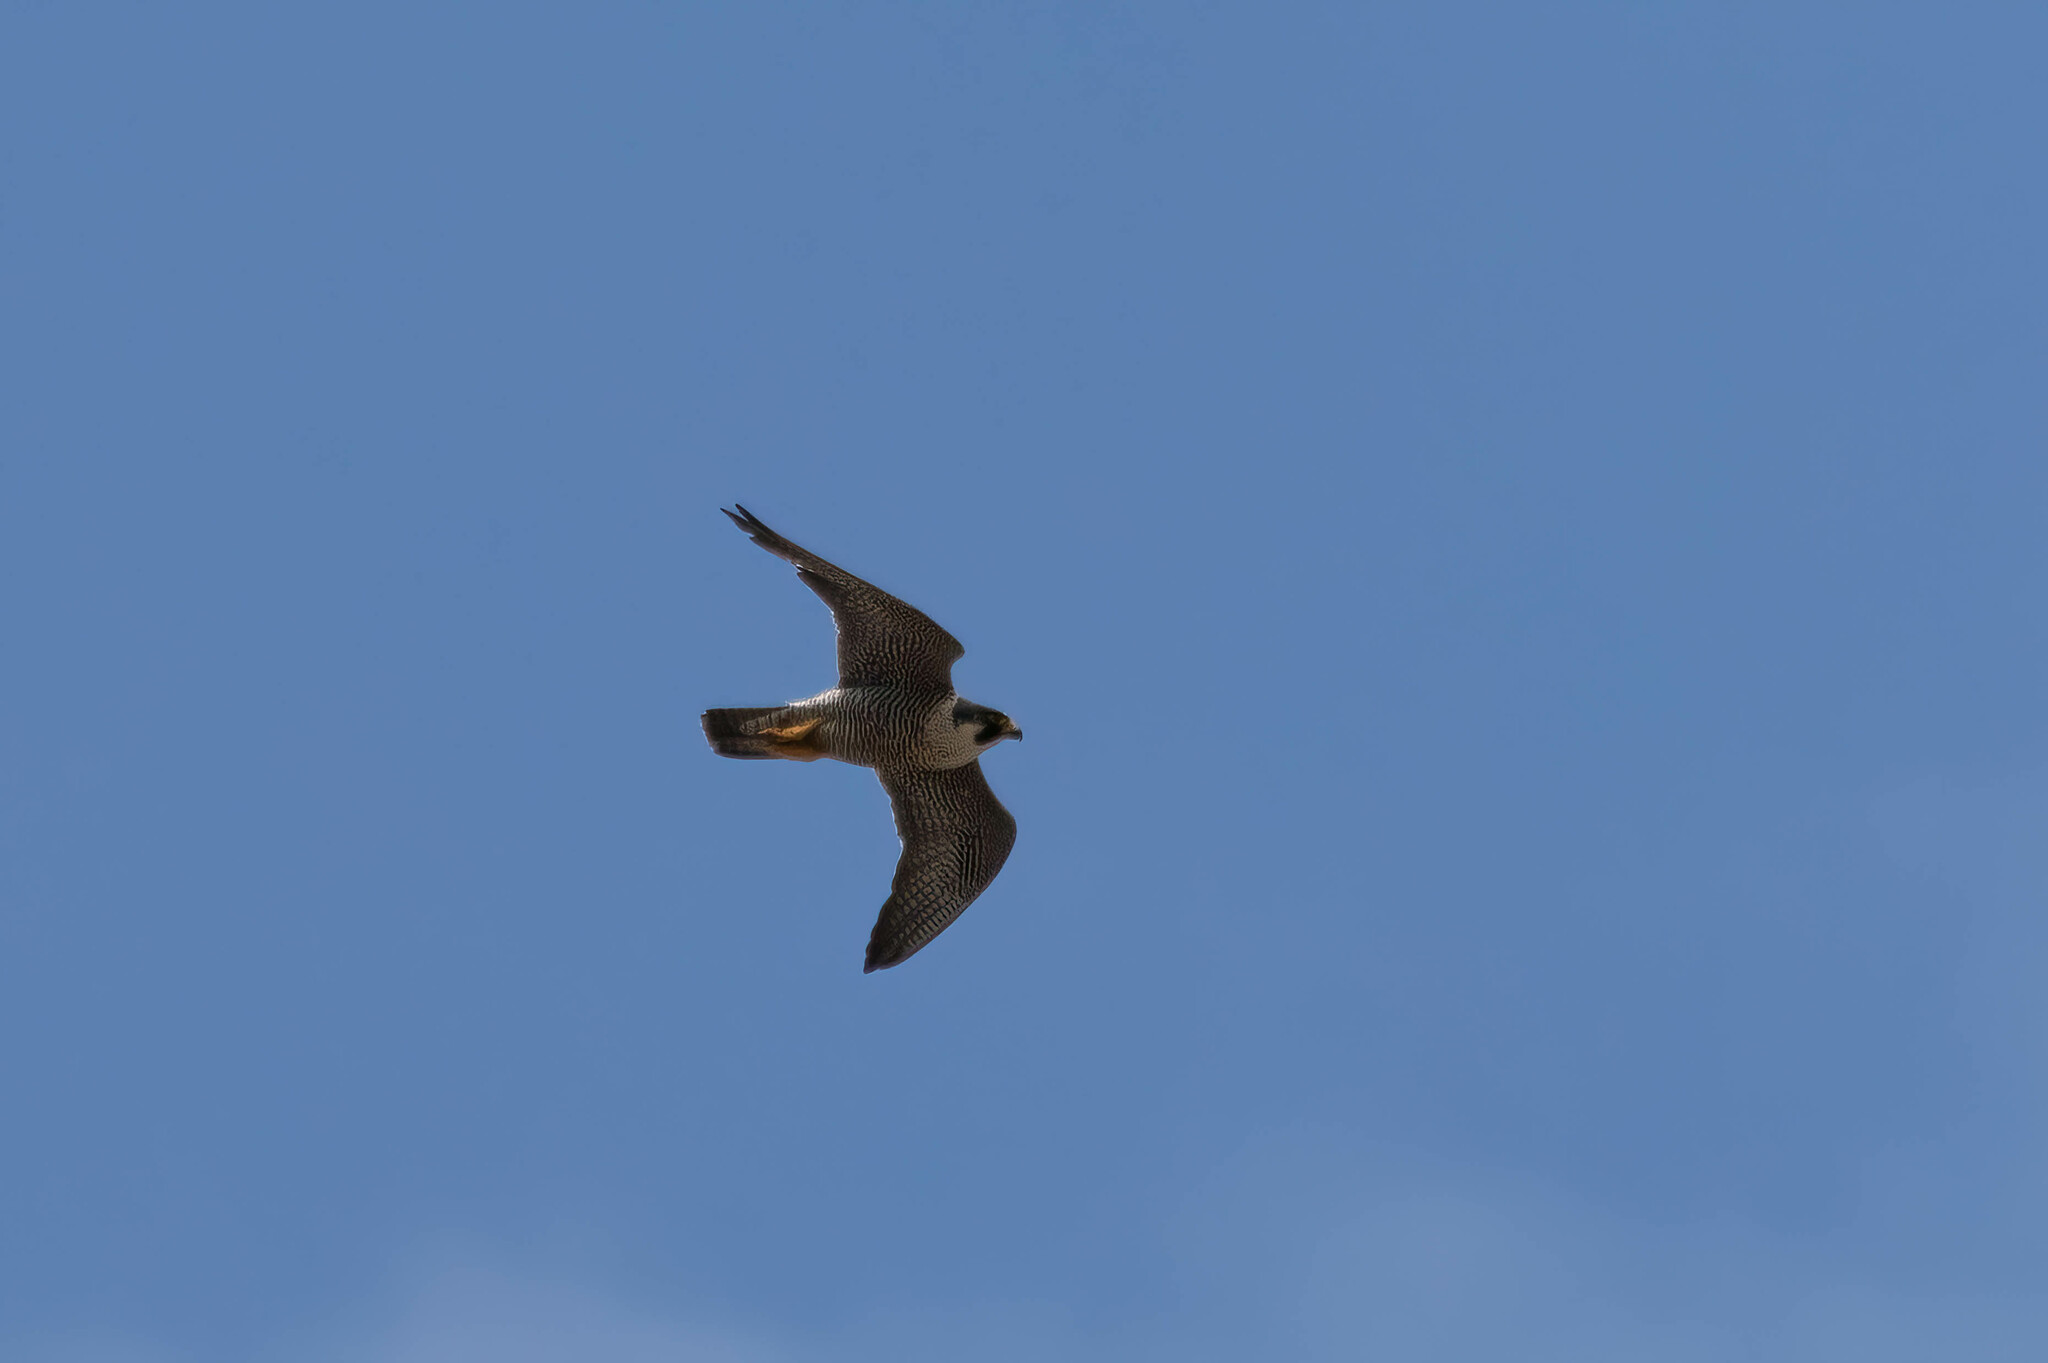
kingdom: Animalia
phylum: Chordata
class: Aves
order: Falconiformes
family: Falconidae
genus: Falco
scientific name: Falco peregrinus
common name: Peregrine falcon
